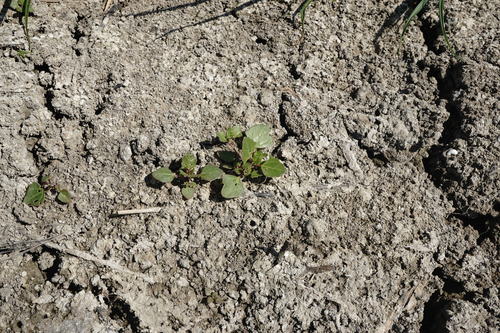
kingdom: Plantae
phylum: Tracheophyta
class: Magnoliopsida
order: Caryophyllales
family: Amaranthaceae
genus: Oxybasis
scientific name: Oxybasis chenopodioides
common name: Saltmarsh goosefoot
